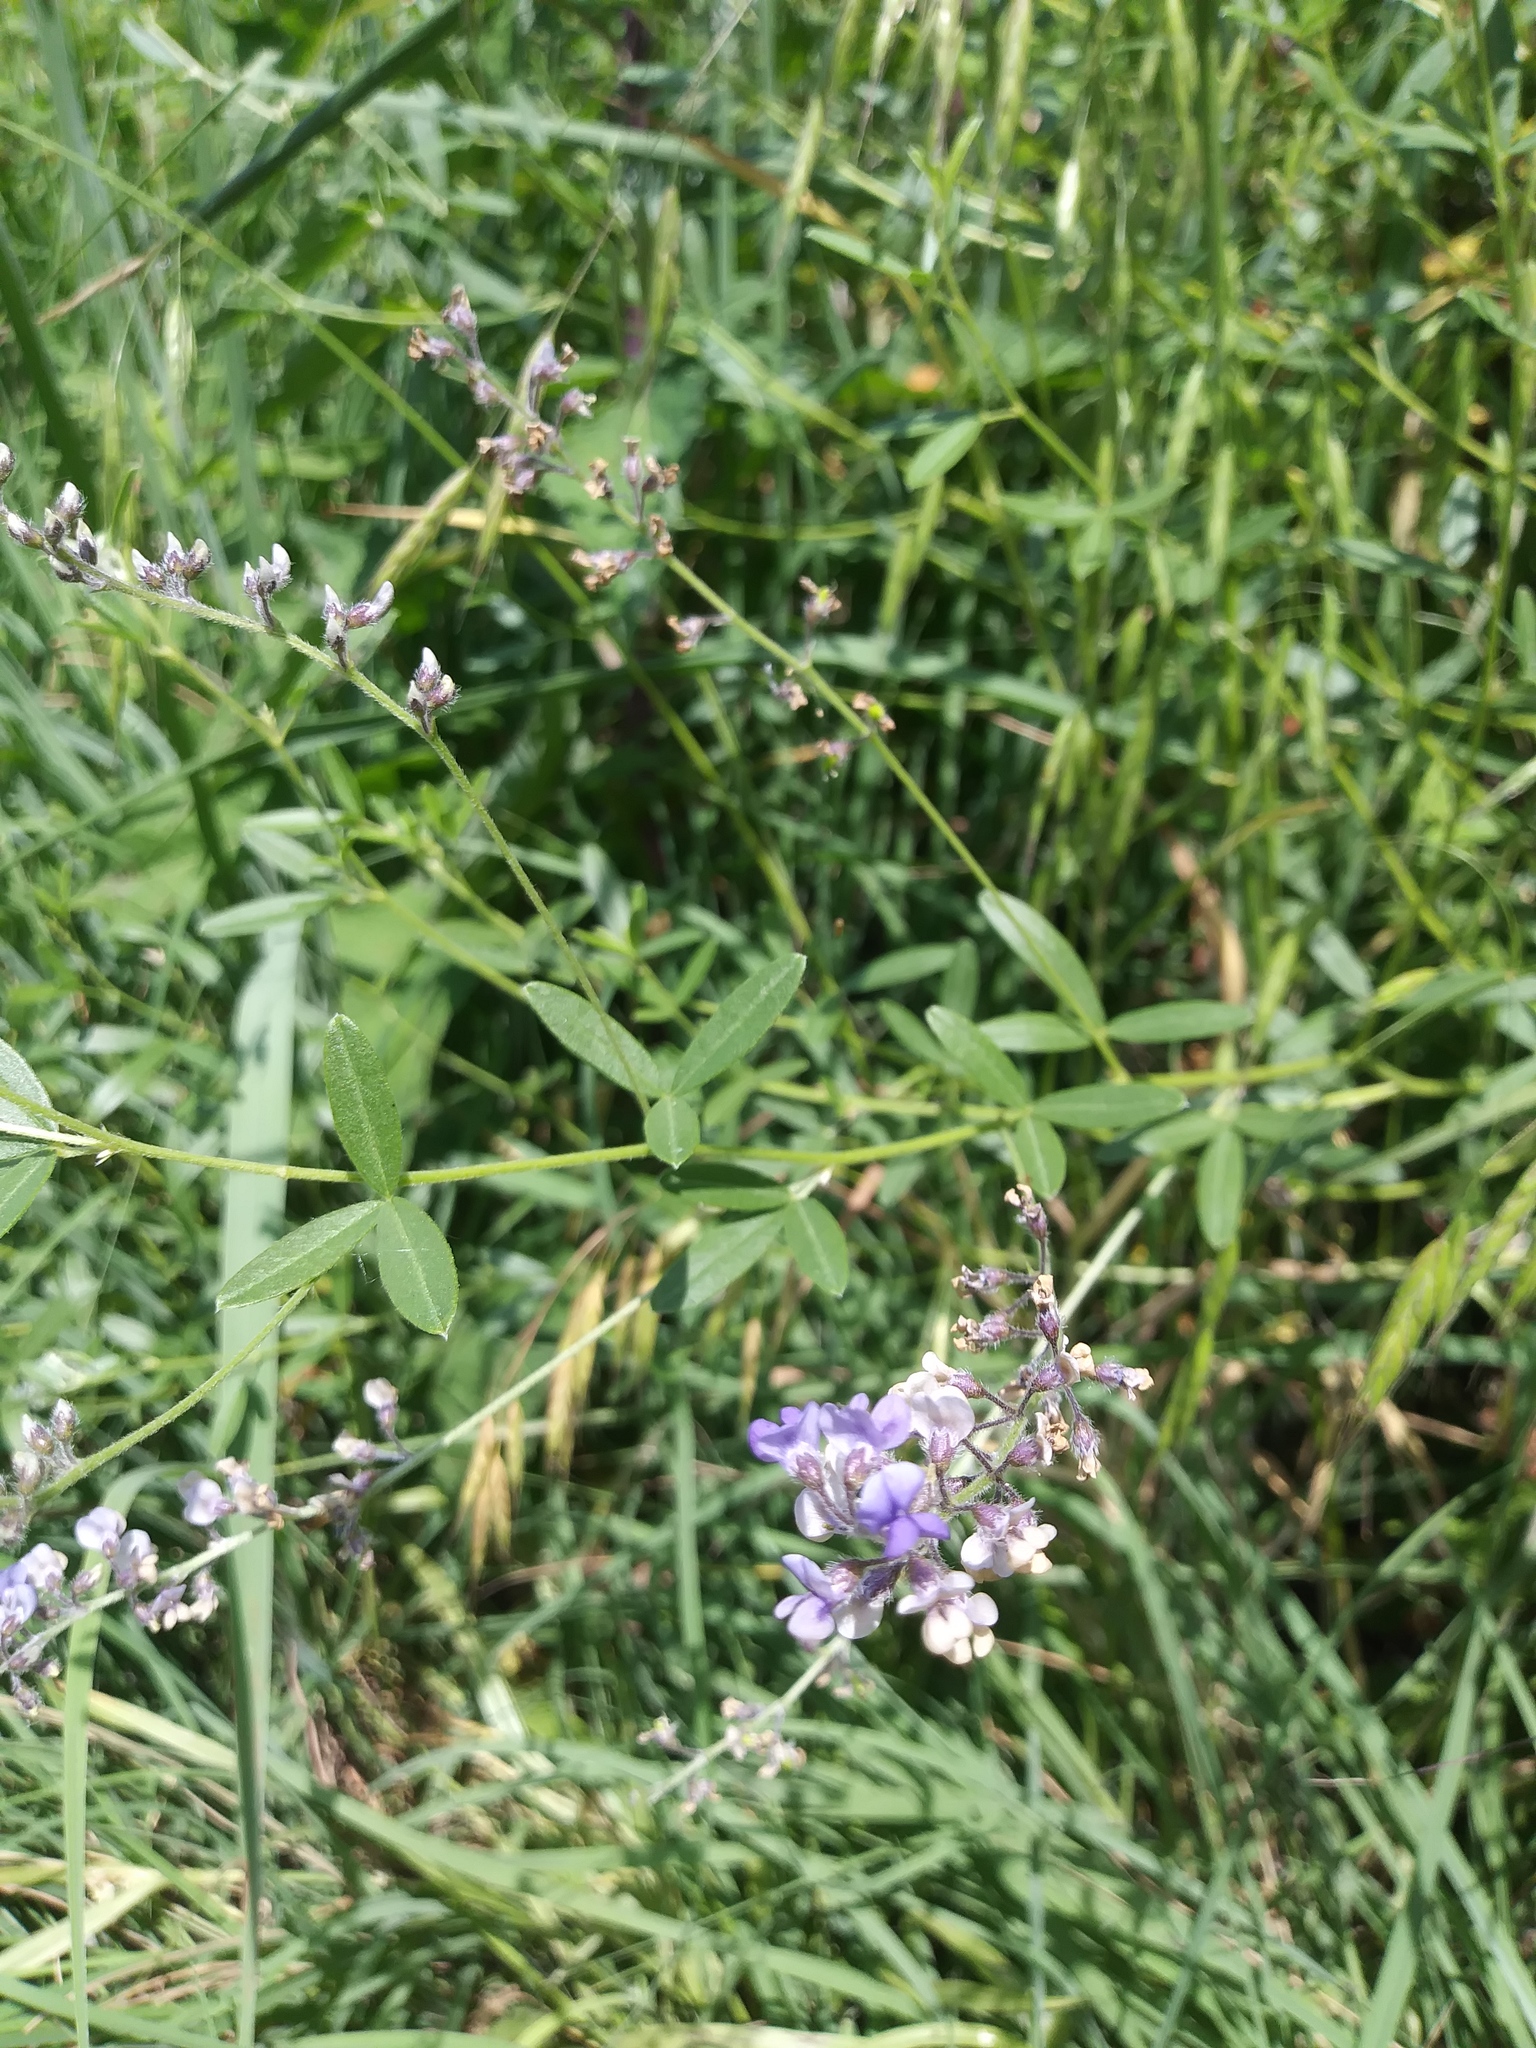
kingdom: Plantae
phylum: Tracheophyta
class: Magnoliopsida
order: Fabales
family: Fabaceae
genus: Pediomelum
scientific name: Pediomelum tenuiflorum
